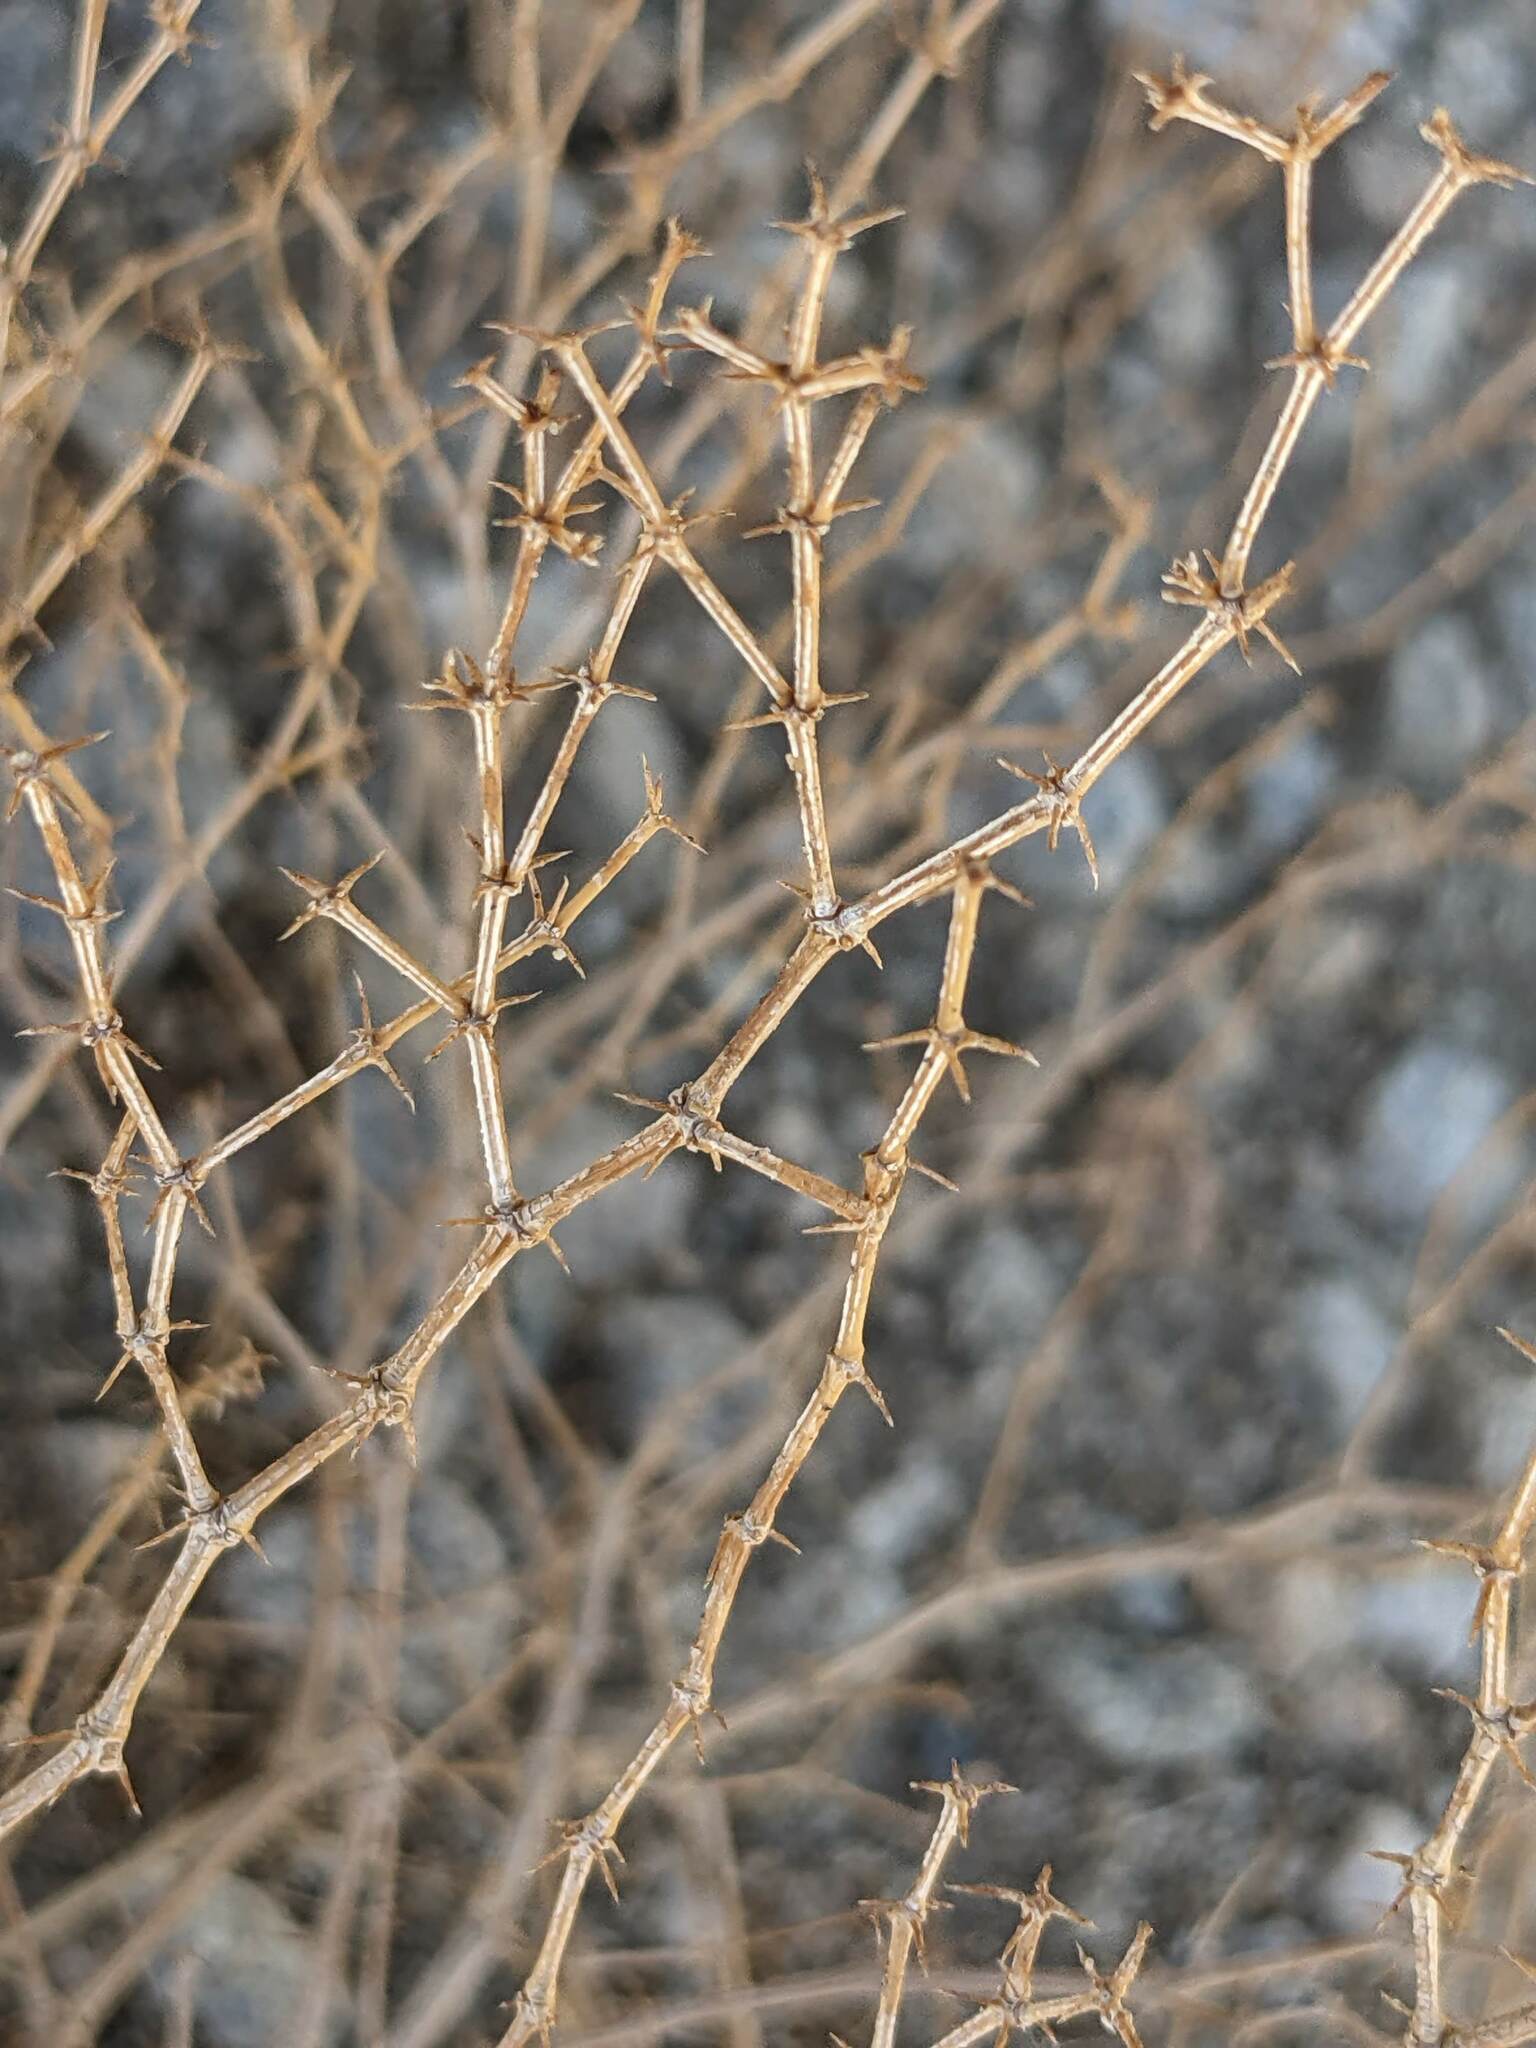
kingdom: Plantae
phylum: Tracheophyta
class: Magnoliopsida
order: Zygophyllales
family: Zygophyllaceae
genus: Fagonia
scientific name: Fagonia laevis
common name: California fagonbush
